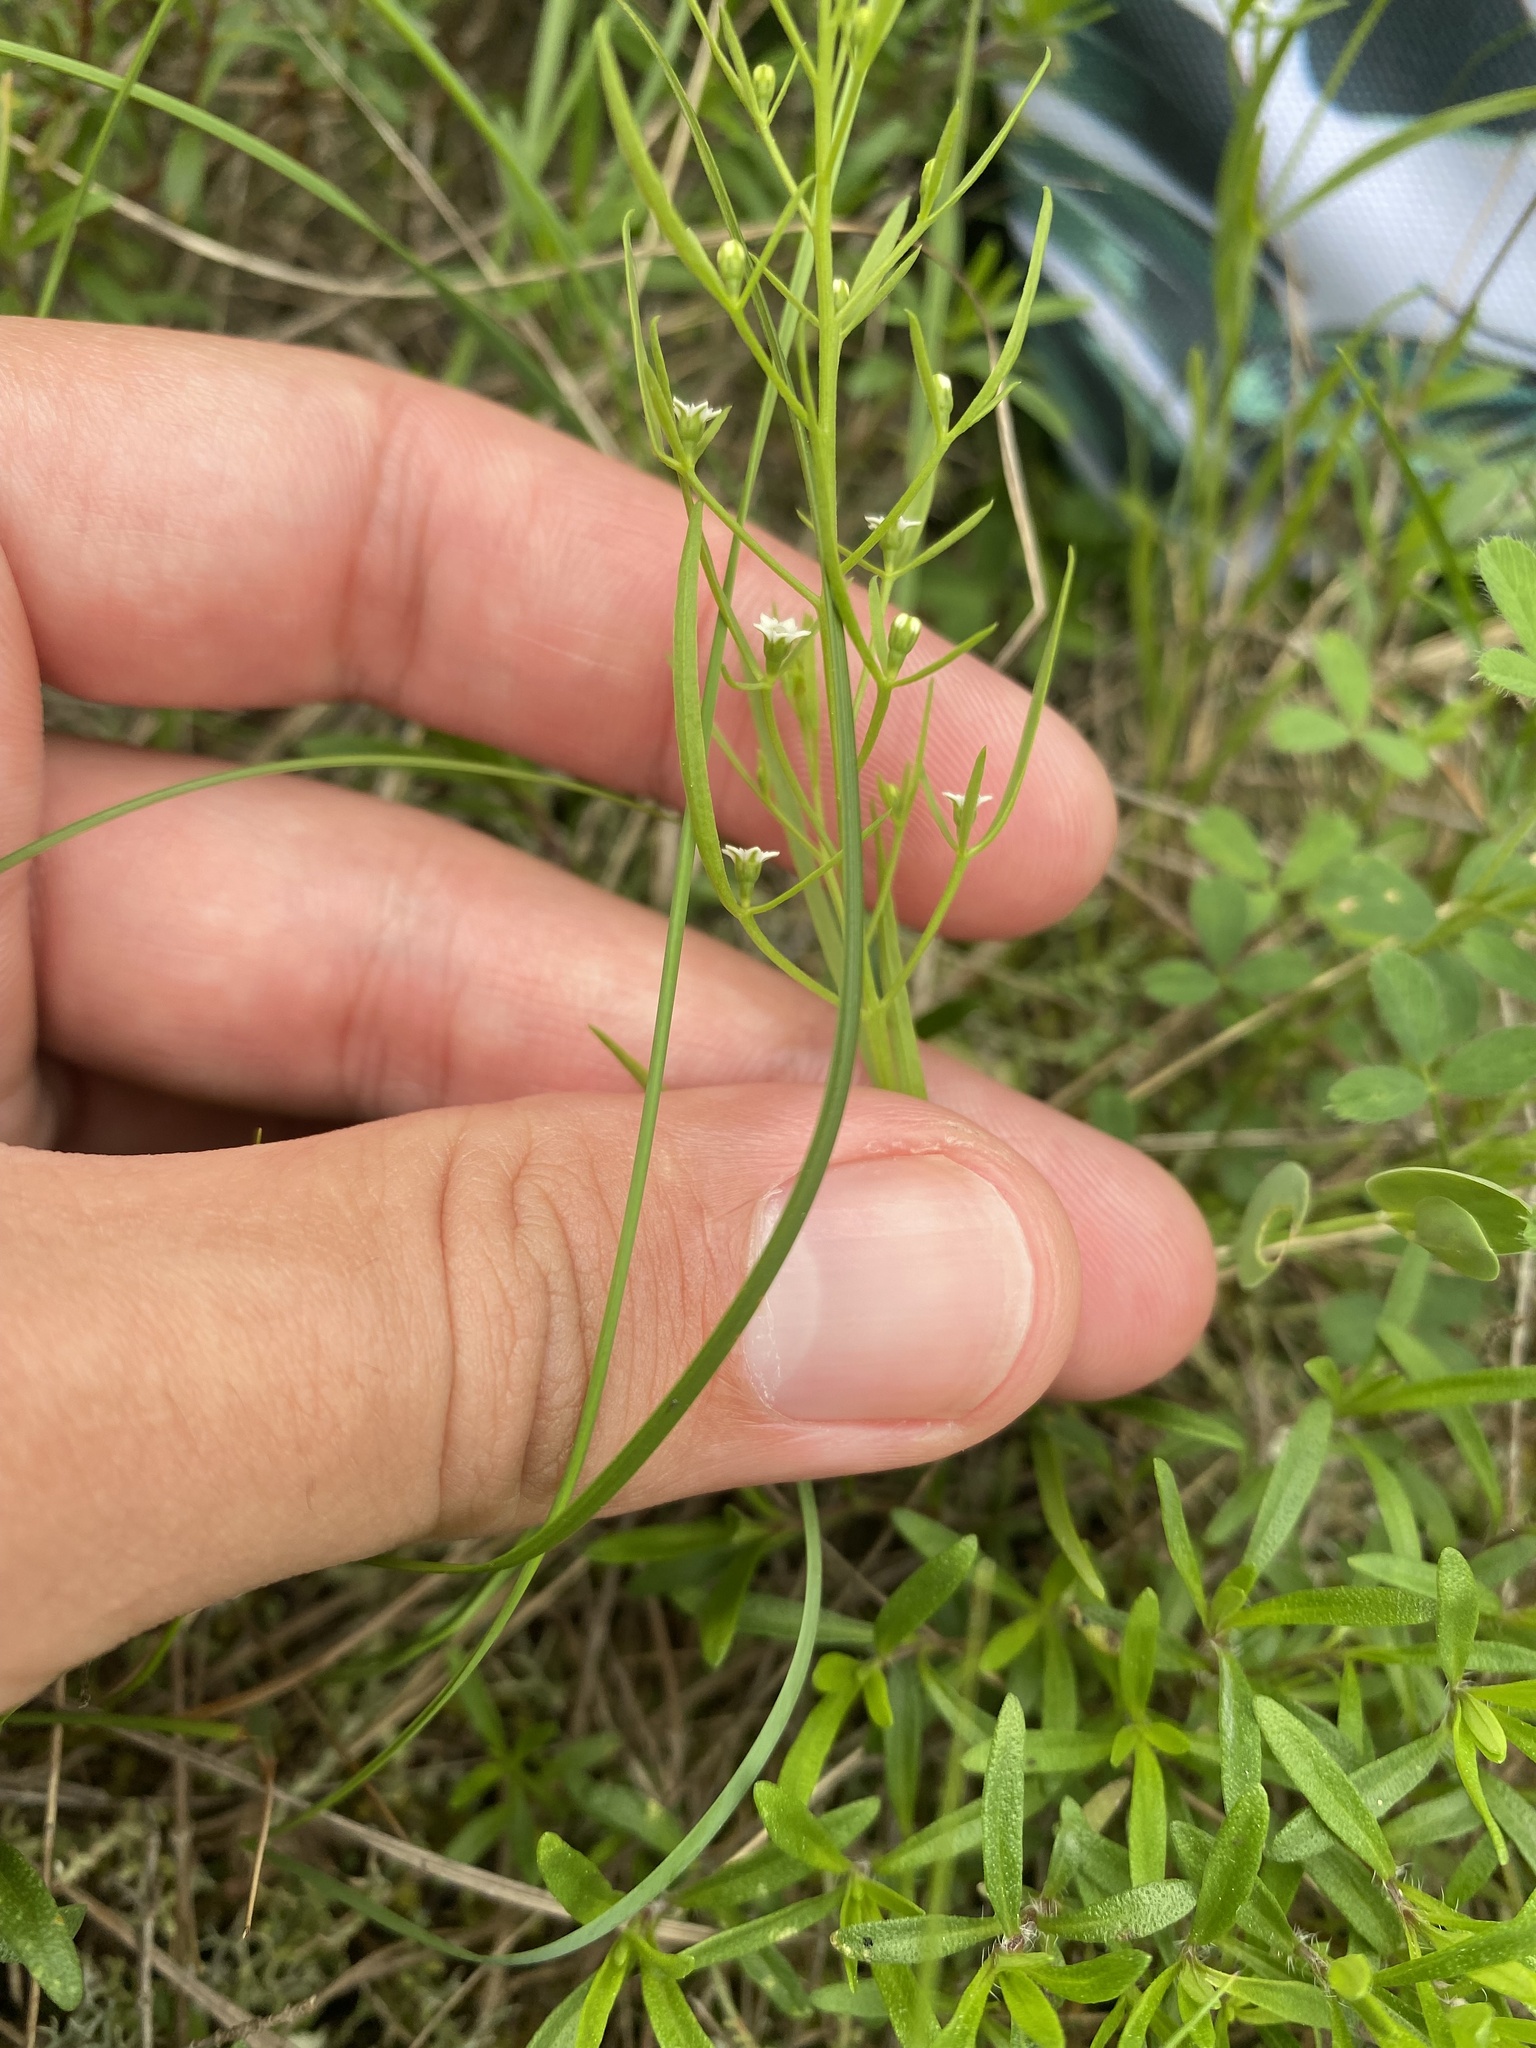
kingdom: Plantae
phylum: Tracheophyta
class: Magnoliopsida
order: Santalales
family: Thesiaceae
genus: Thesium
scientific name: Thesium ramosum
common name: Field thesium
